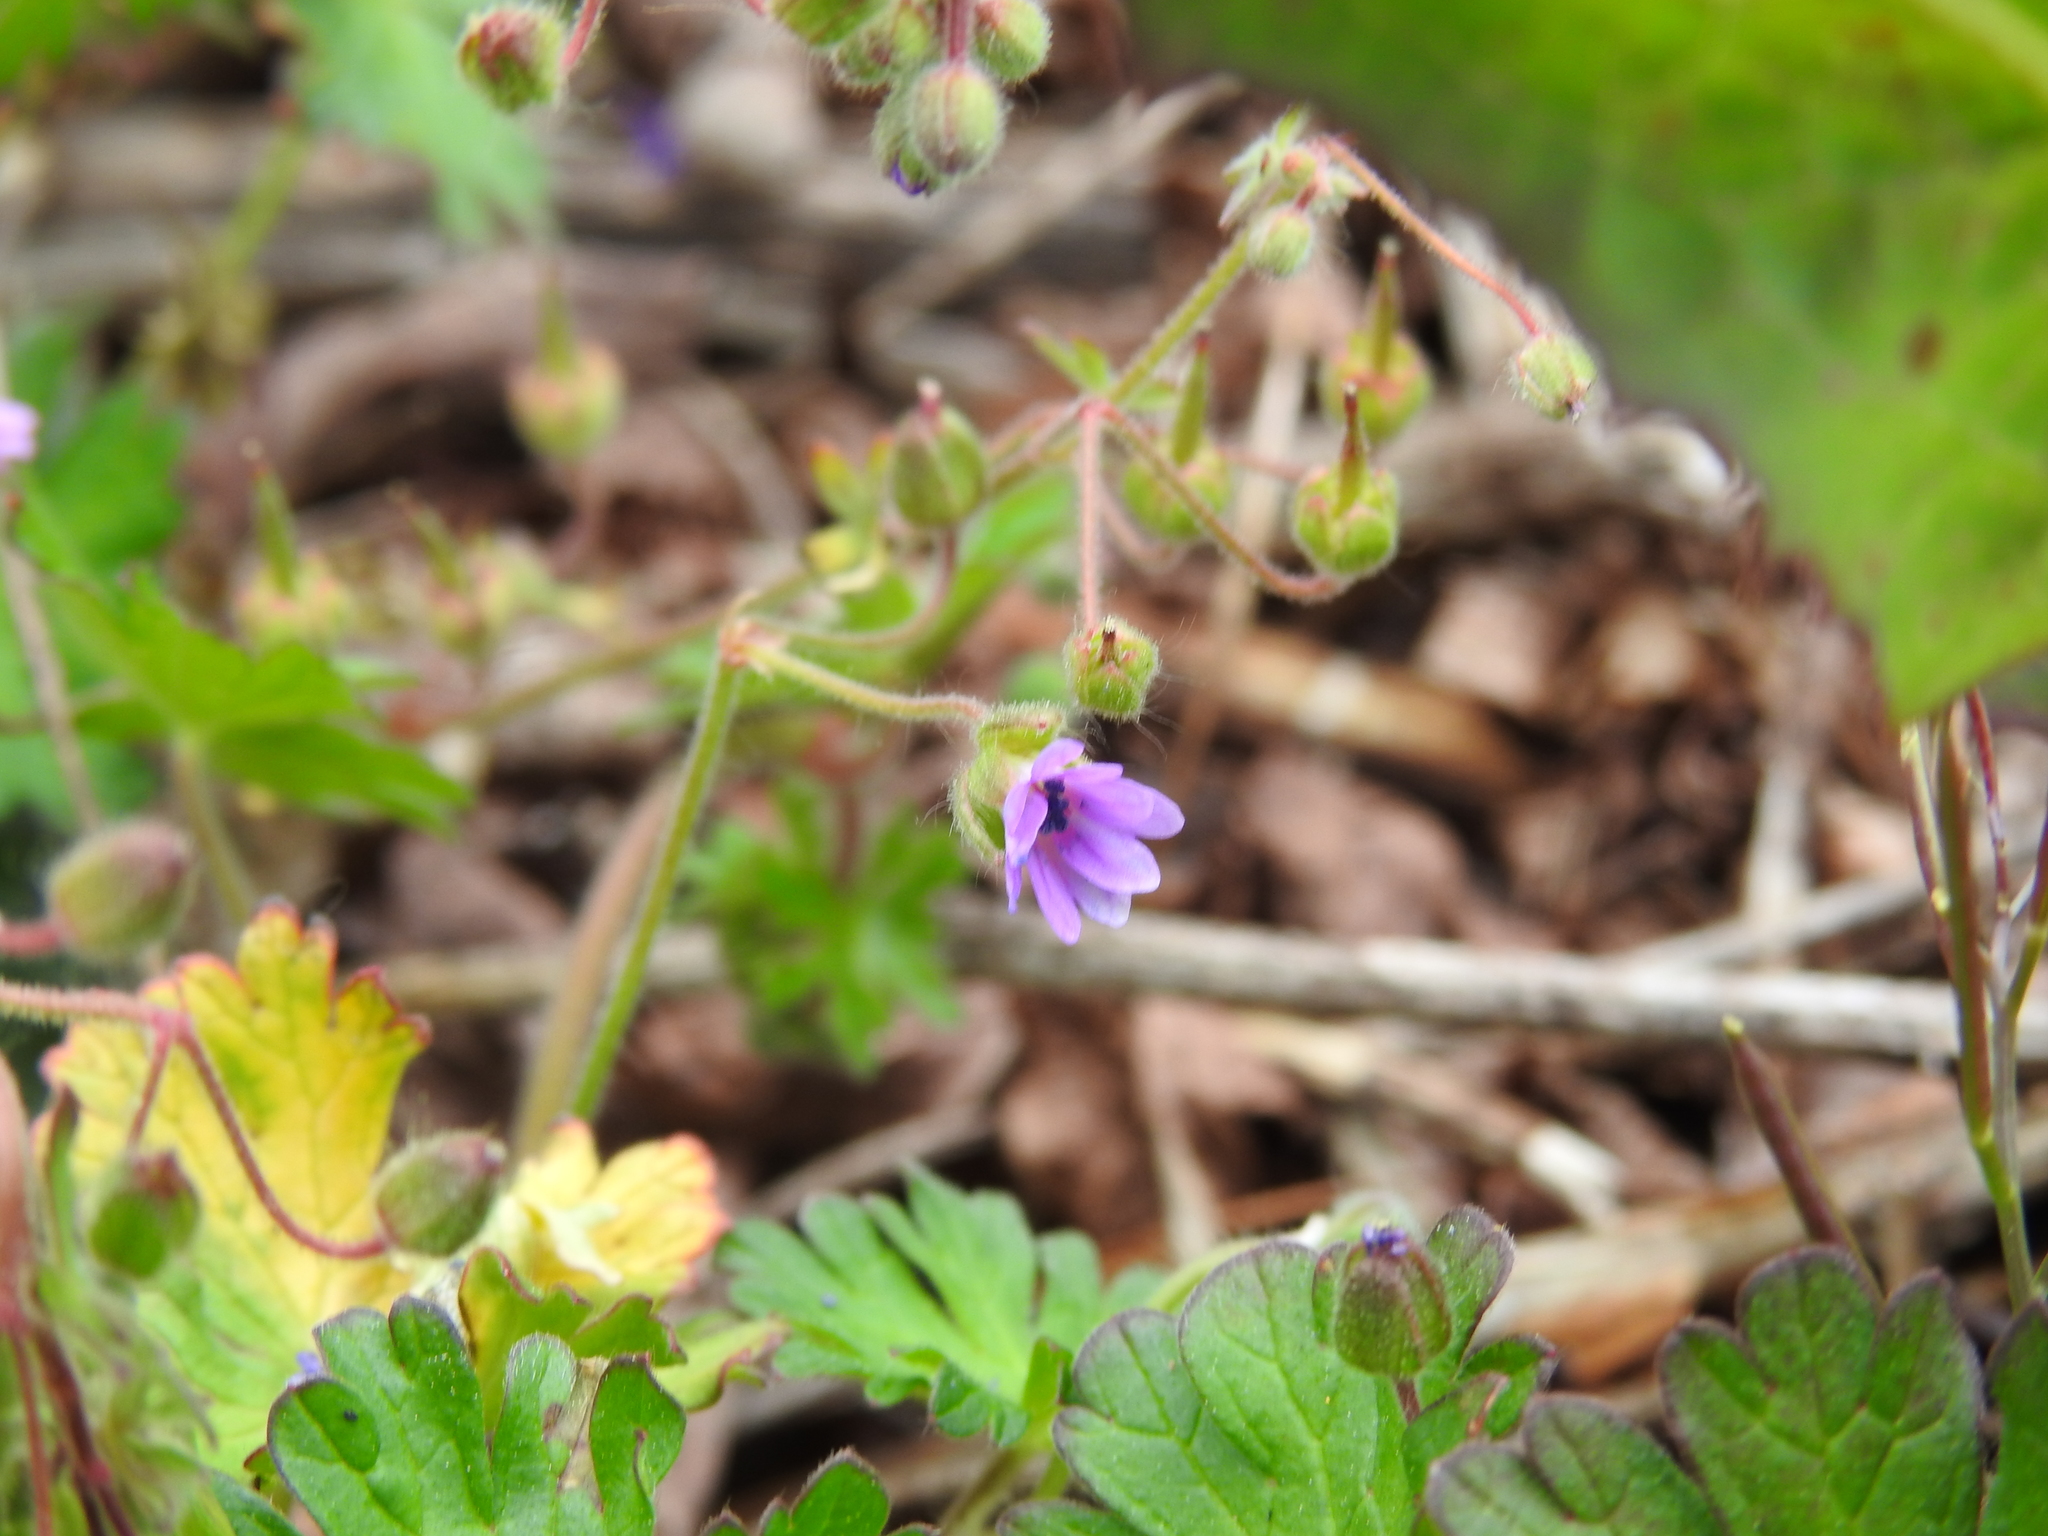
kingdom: Plantae
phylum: Tracheophyta
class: Magnoliopsida
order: Geraniales
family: Geraniaceae
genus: Geranium
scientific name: Geranium molle
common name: Dove's-foot crane's-bill
